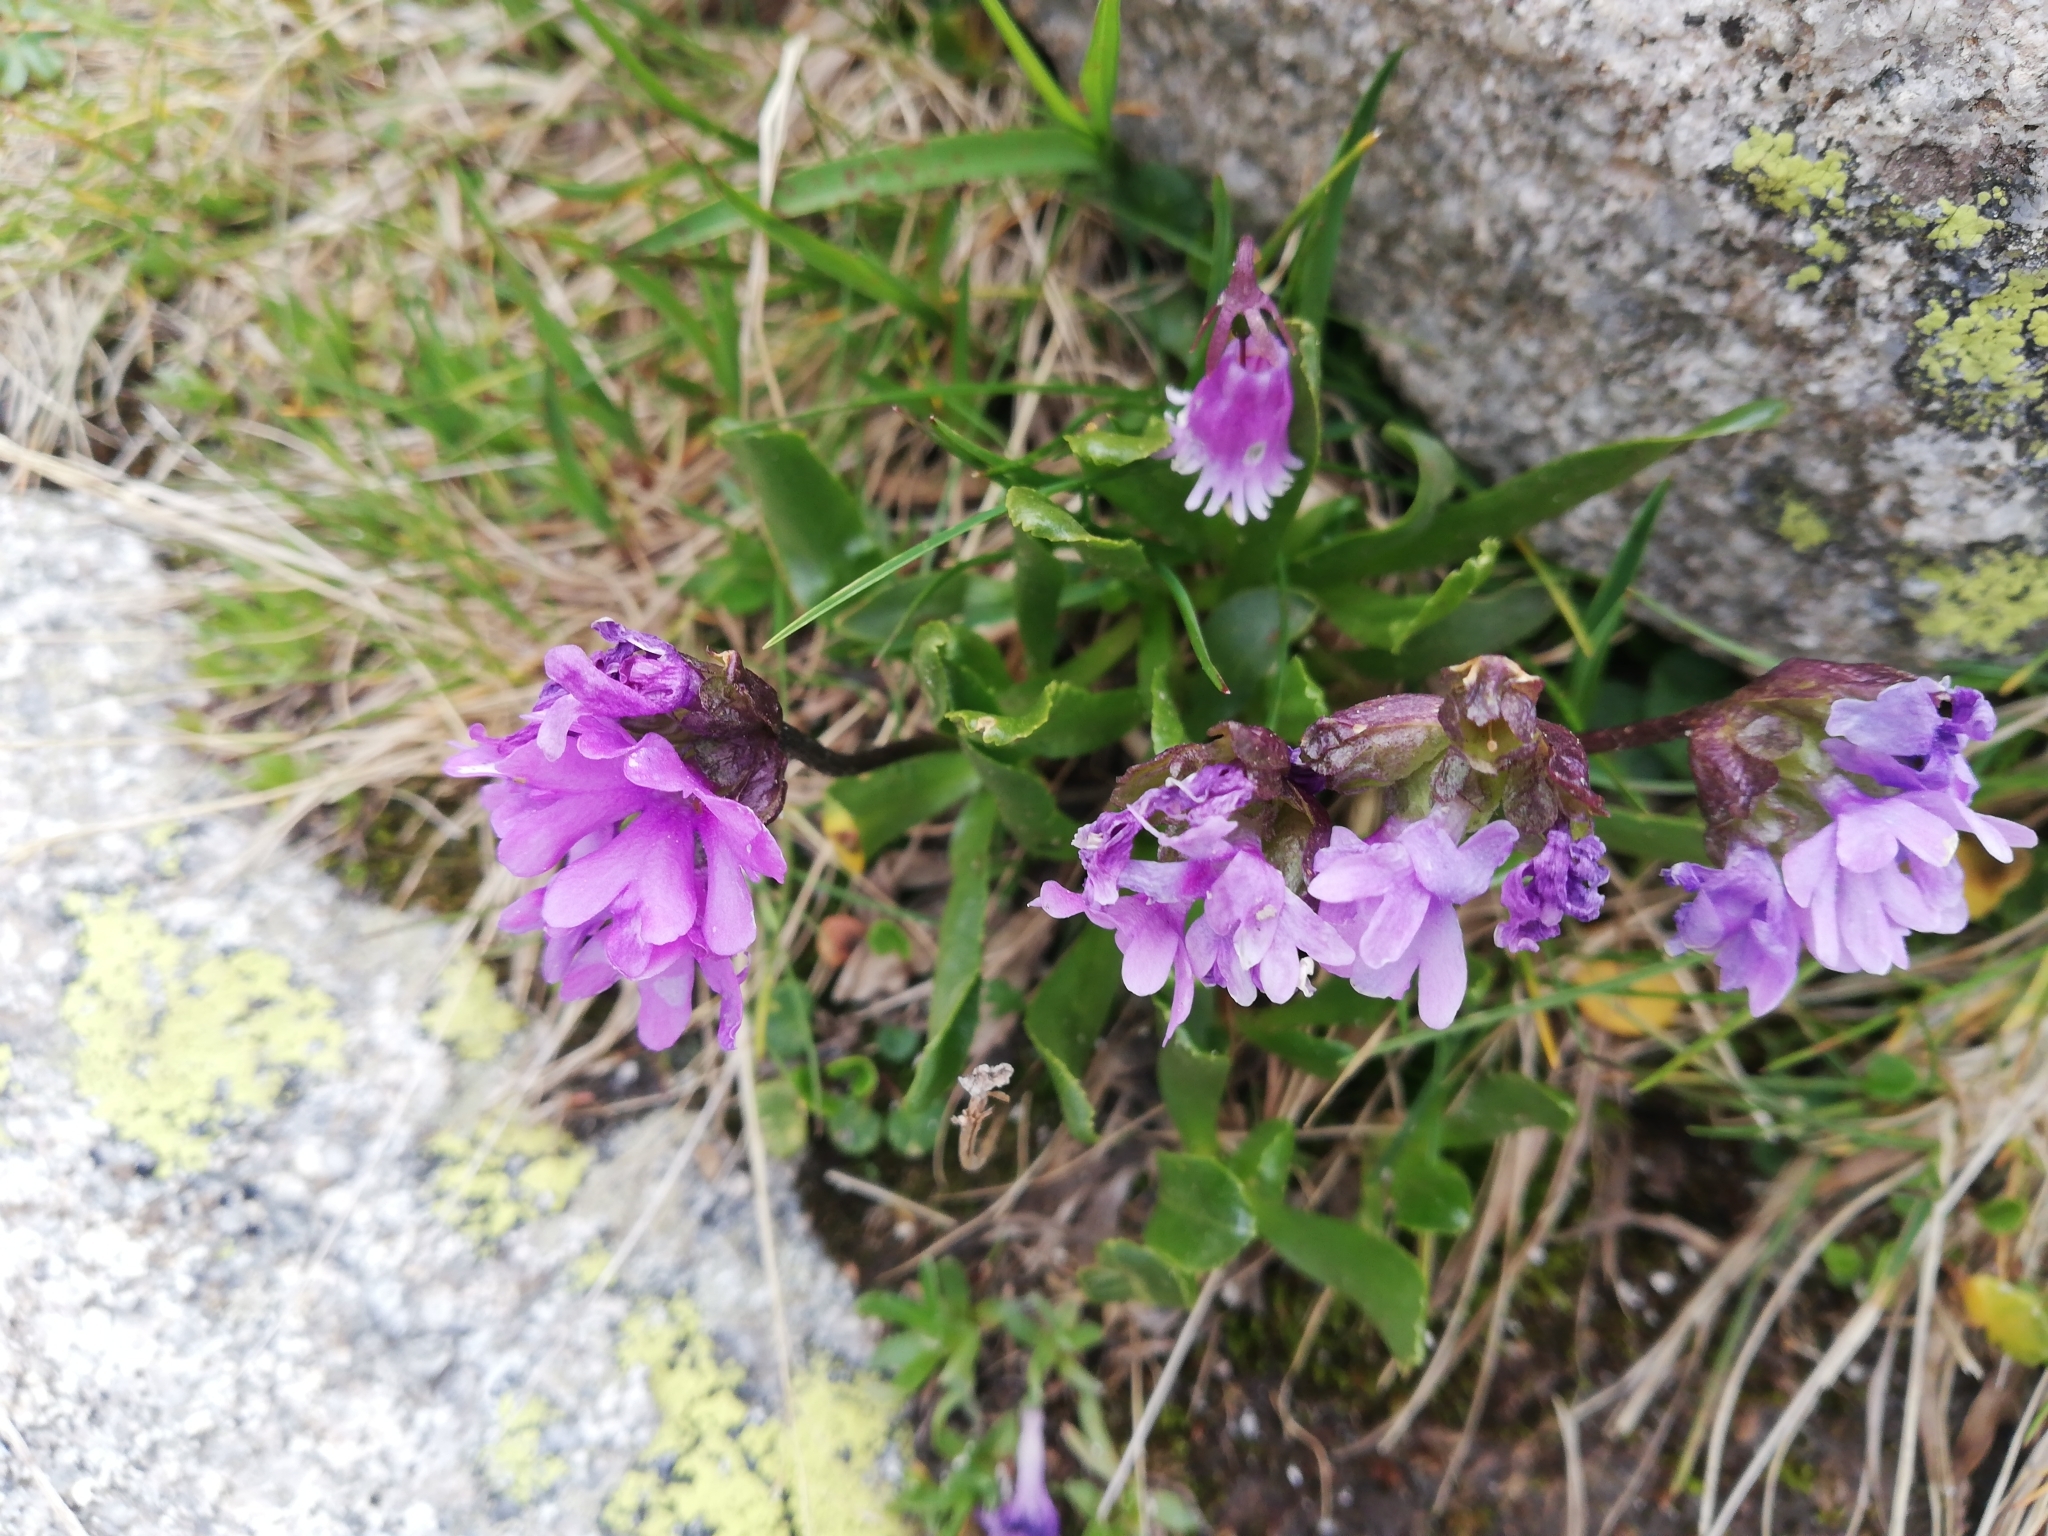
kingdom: Plantae
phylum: Tracheophyta
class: Magnoliopsida
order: Ericales
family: Primulaceae
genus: Primula
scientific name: Primula glutinosa
